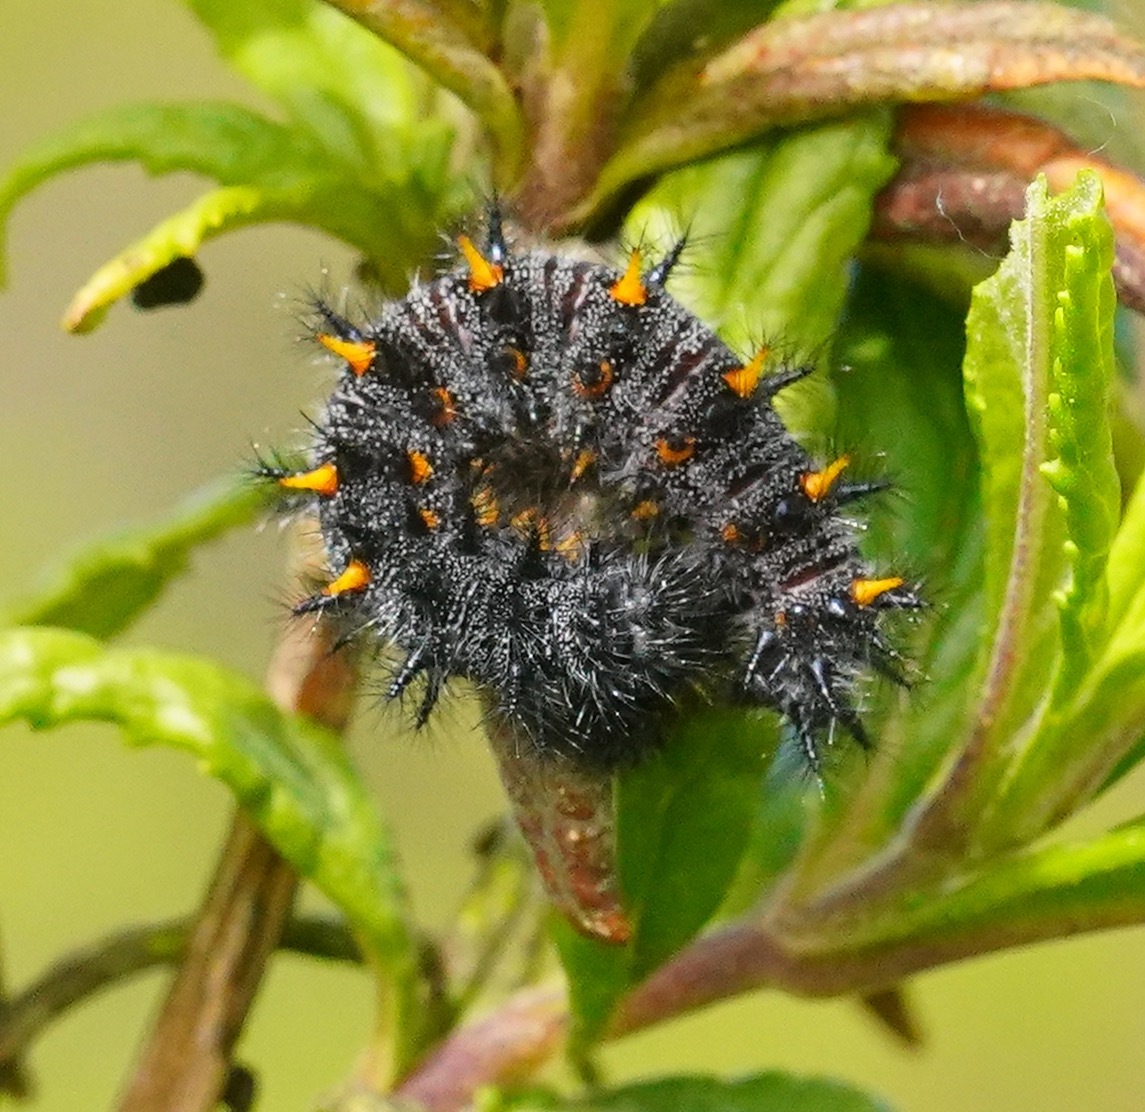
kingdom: Animalia
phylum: Arthropoda
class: Insecta
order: Lepidoptera
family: Nymphalidae
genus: Occidryas
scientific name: Occidryas chalcedona
